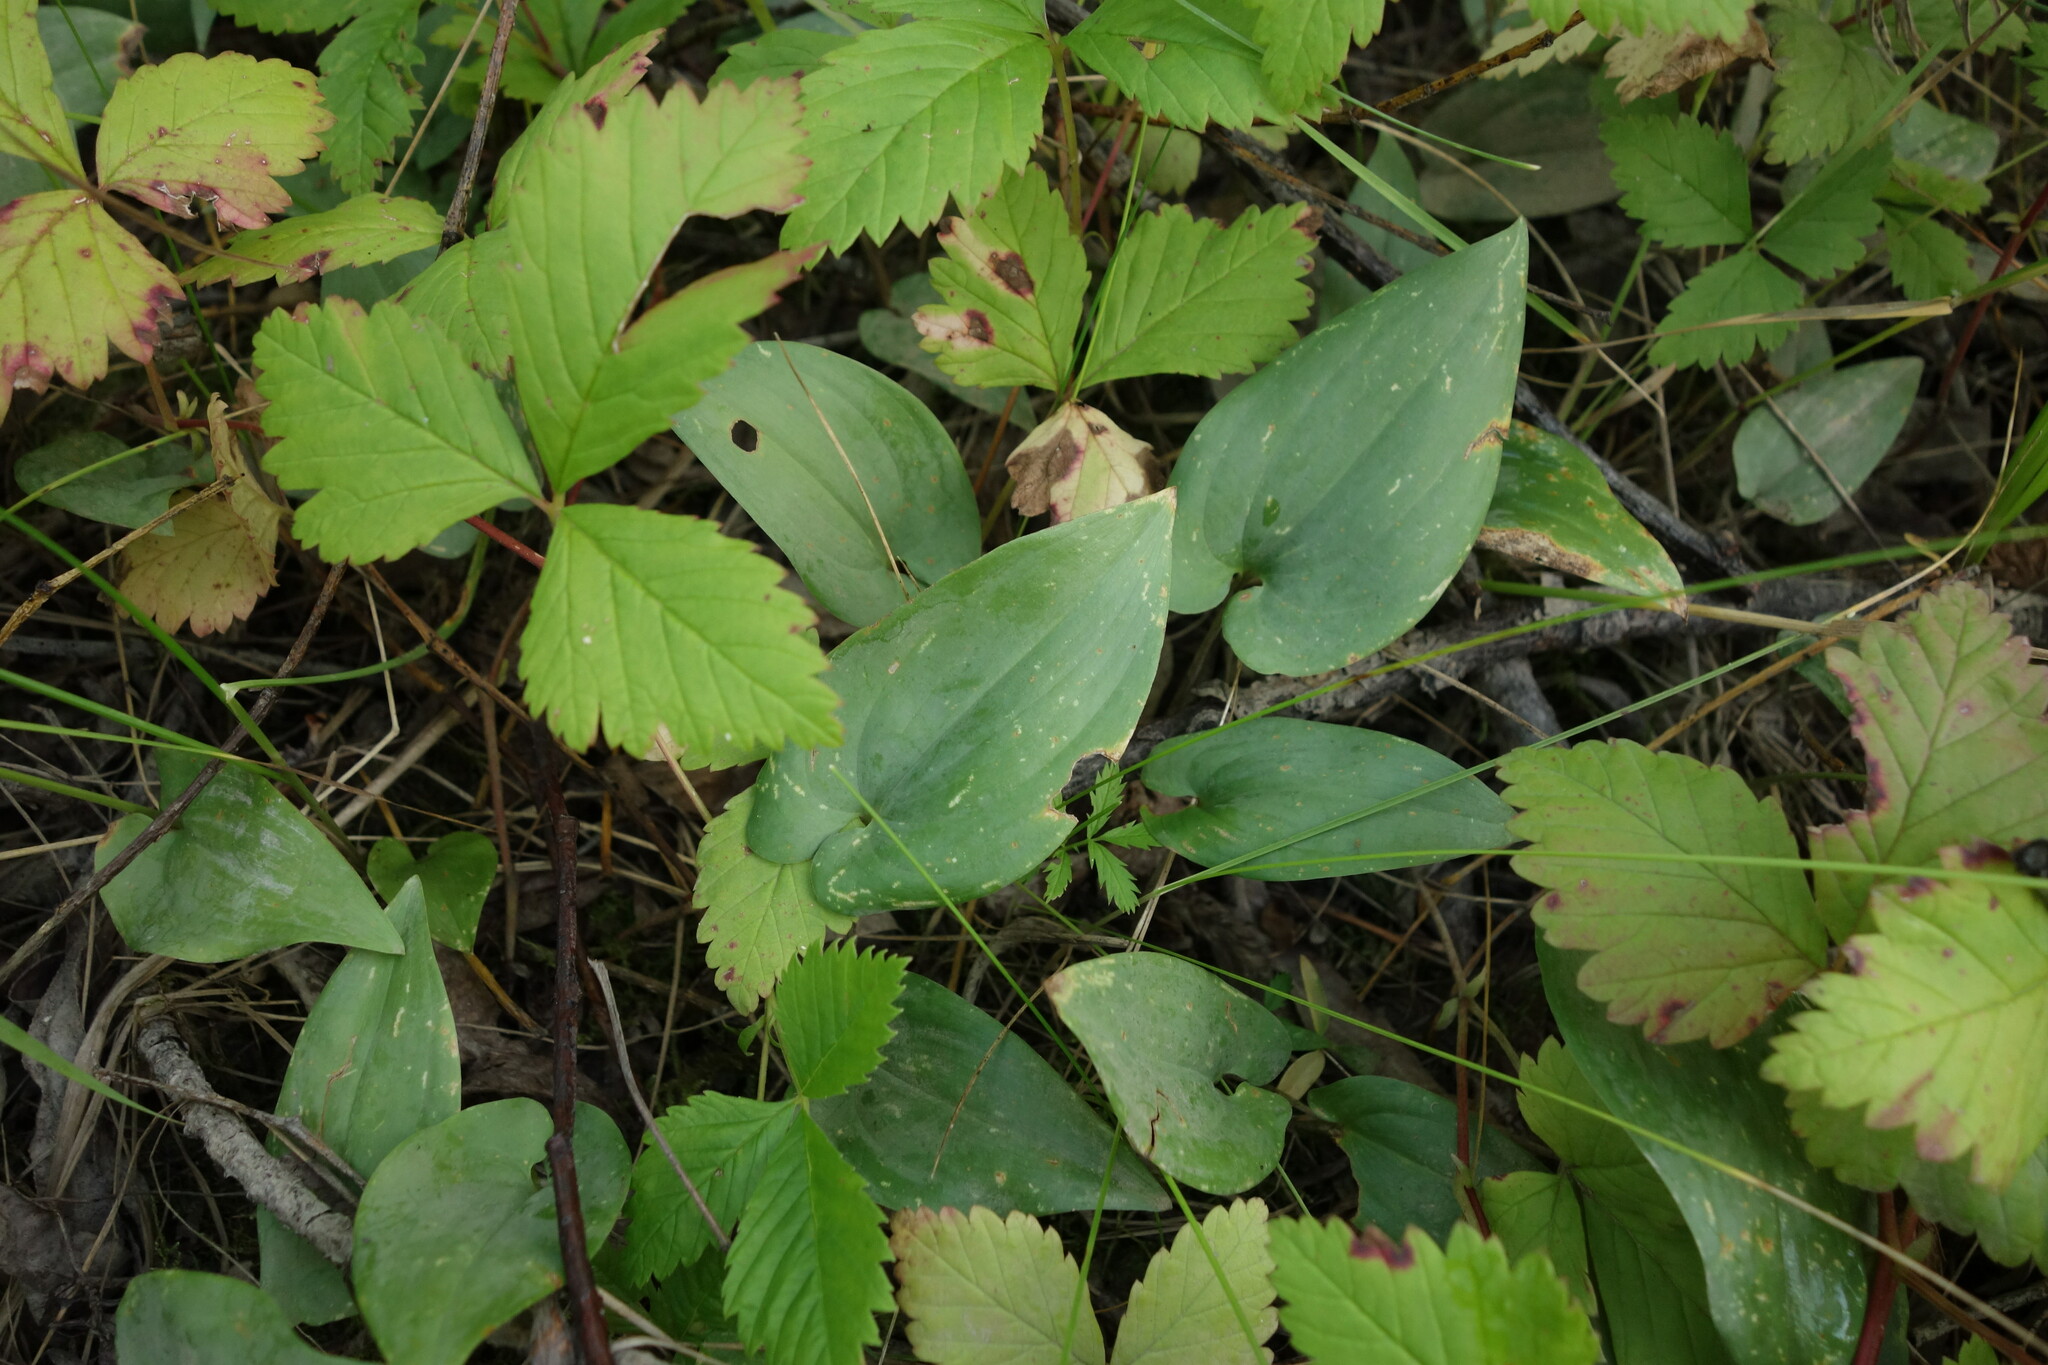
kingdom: Plantae
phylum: Tracheophyta
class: Liliopsida
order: Asparagales
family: Asparagaceae
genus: Maianthemum
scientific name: Maianthemum bifolium
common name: May lily
